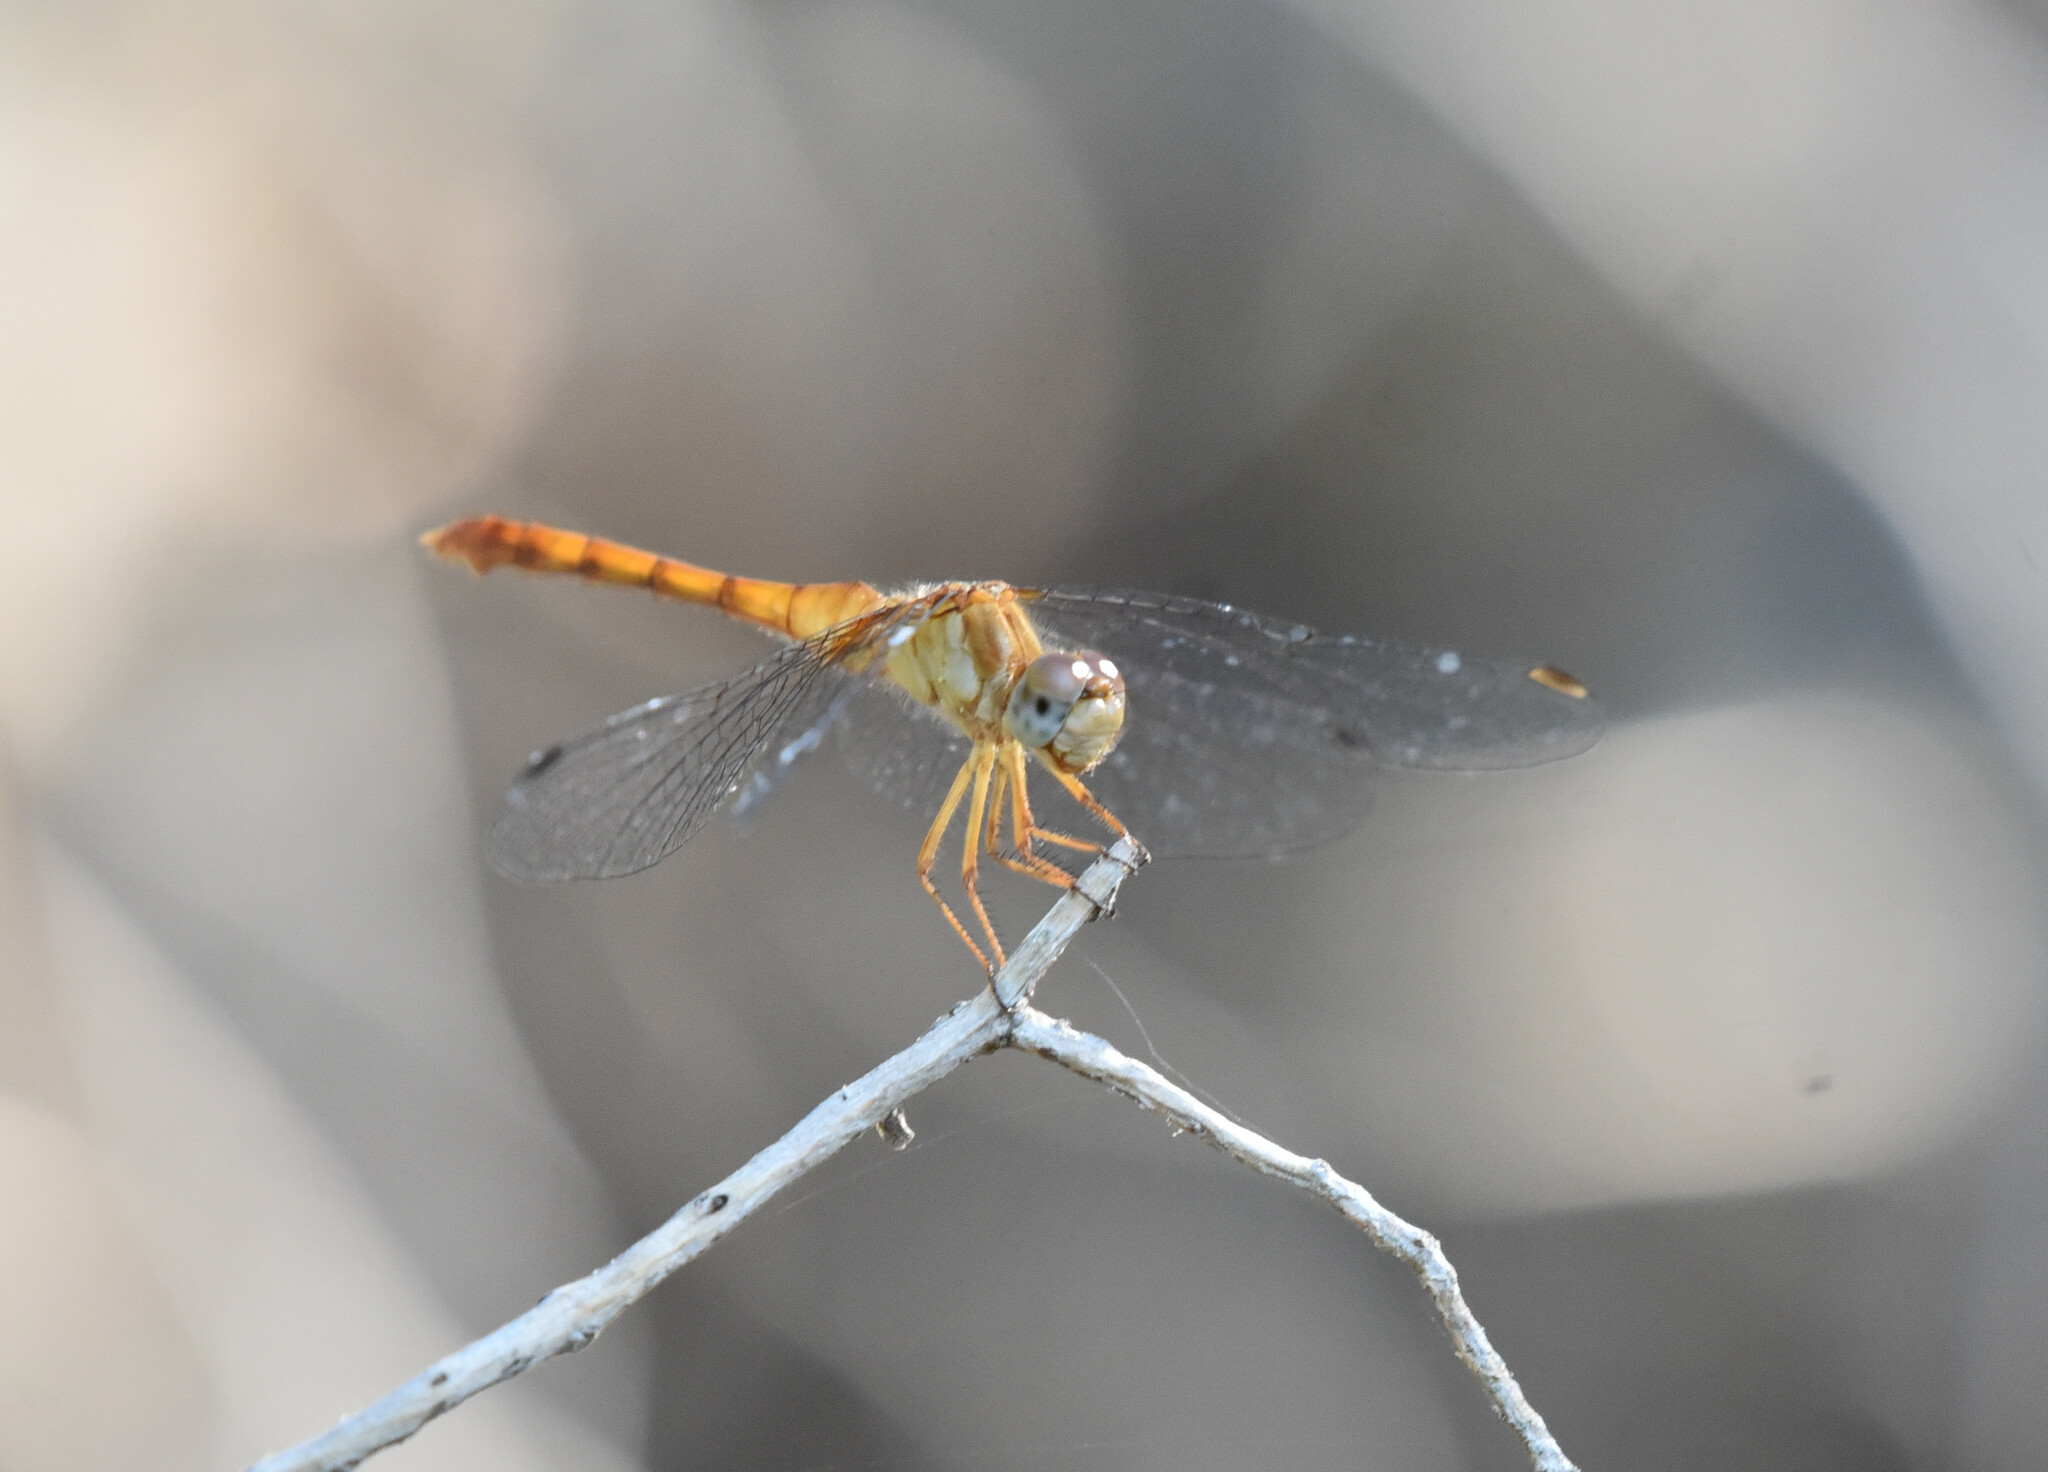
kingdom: Animalia
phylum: Arthropoda
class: Insecta
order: Odonata
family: Libellulidae
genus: Sympetrum
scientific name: Sympetrum vicinum
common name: Autumn meadowhawk
